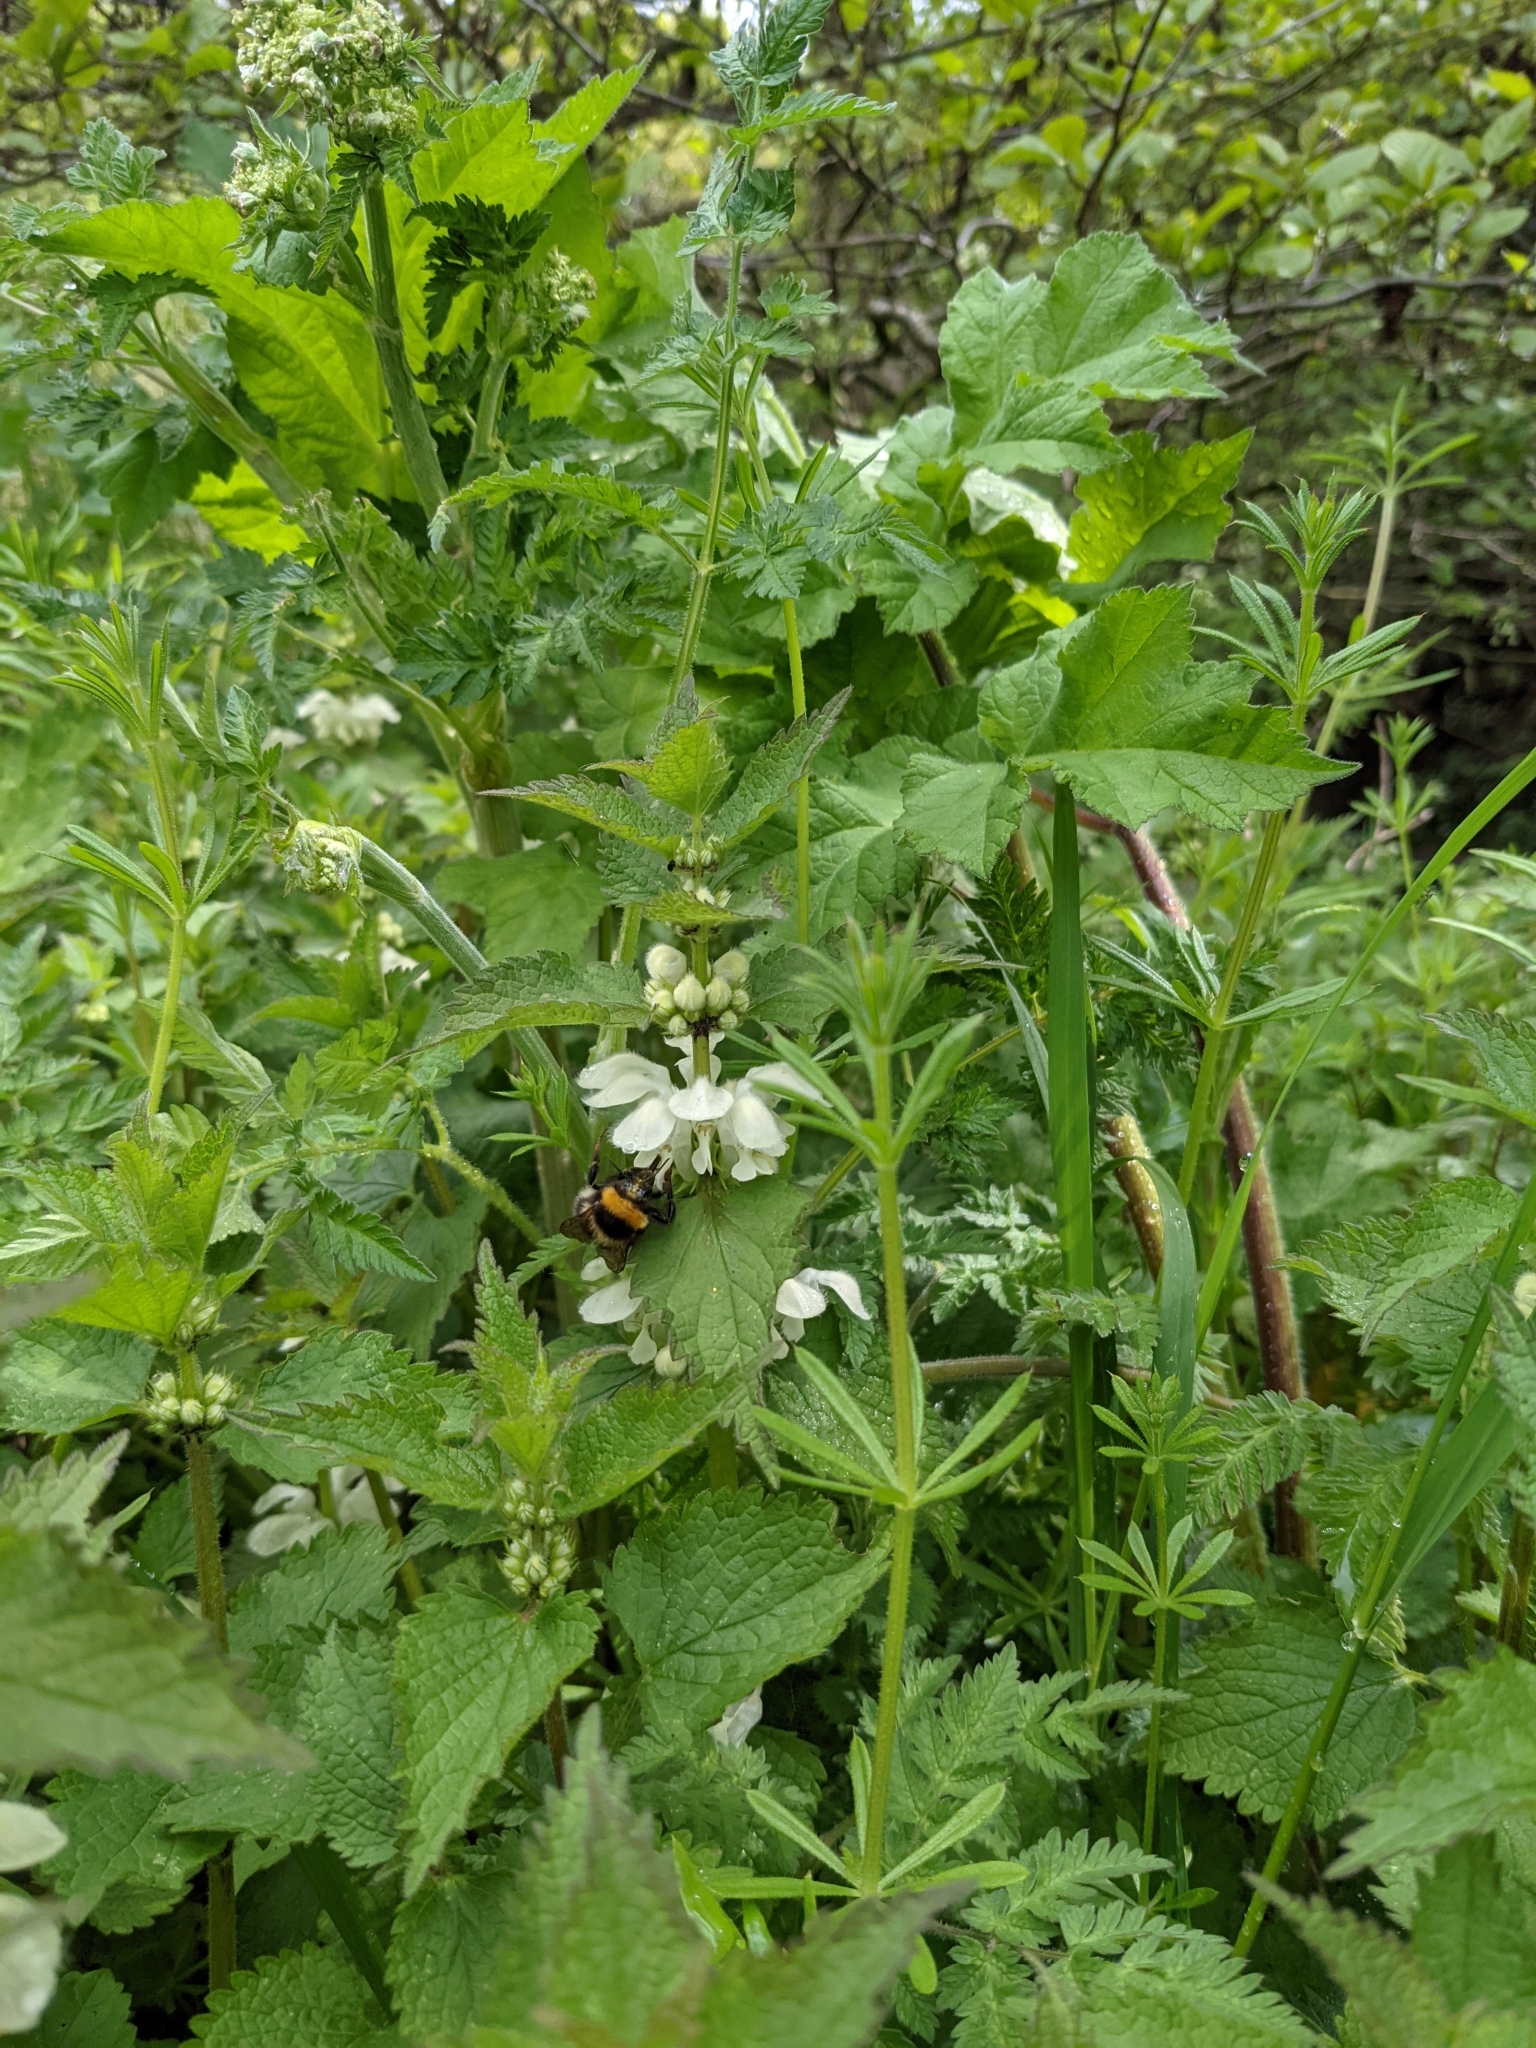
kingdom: Animalia
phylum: Arthropoda
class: Insecta
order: Hymenoptera
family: Apidae
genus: Bombus
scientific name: Bombus hortorum
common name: Garden bumblebee
